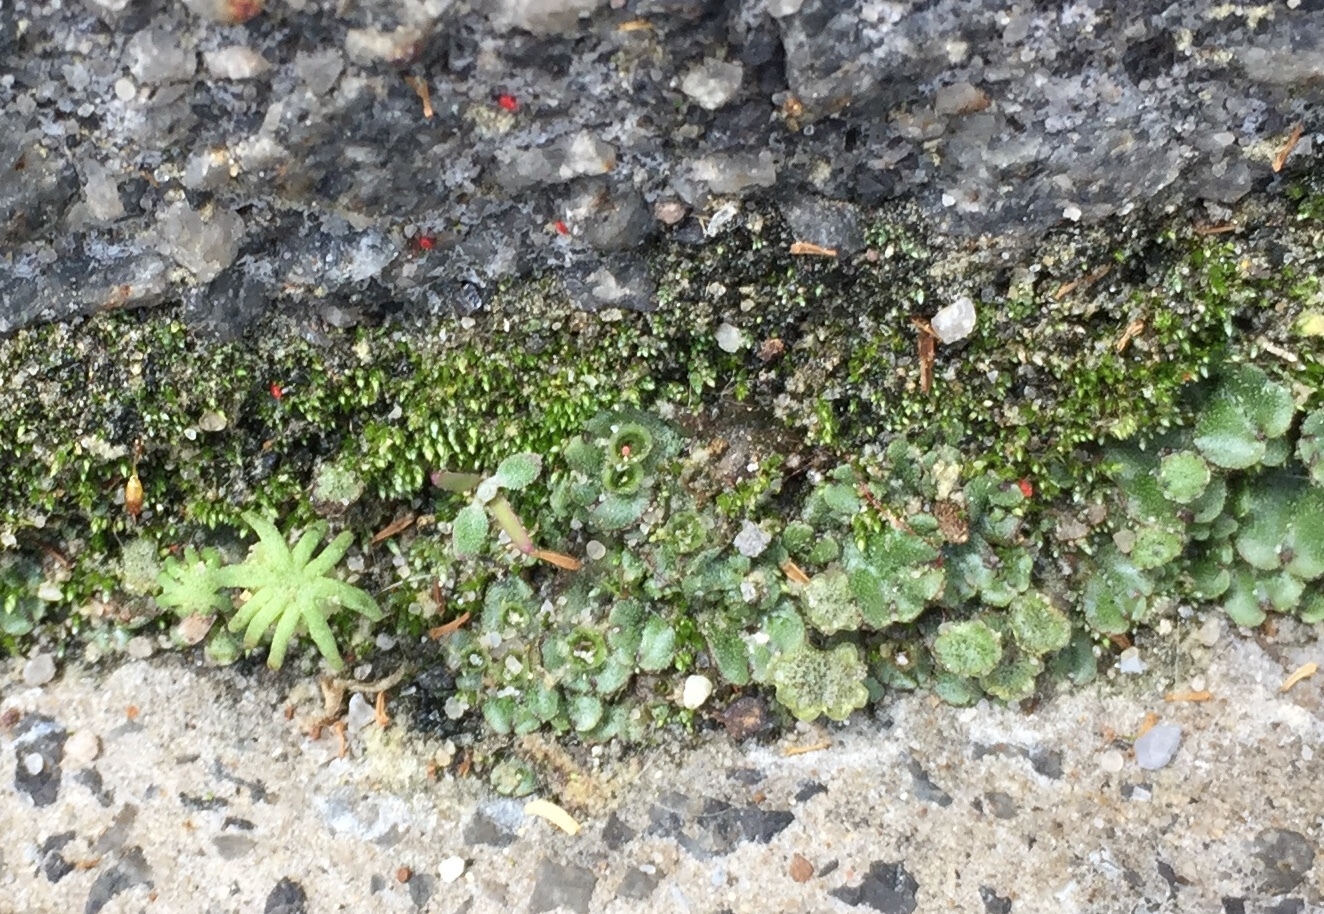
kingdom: Plantae
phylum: Marchantiophyta
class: Marchantiopsida
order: Marchantiales
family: Marchantiaceae
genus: Marchantia
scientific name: Marchantia polymorpha
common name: Common liverwort
